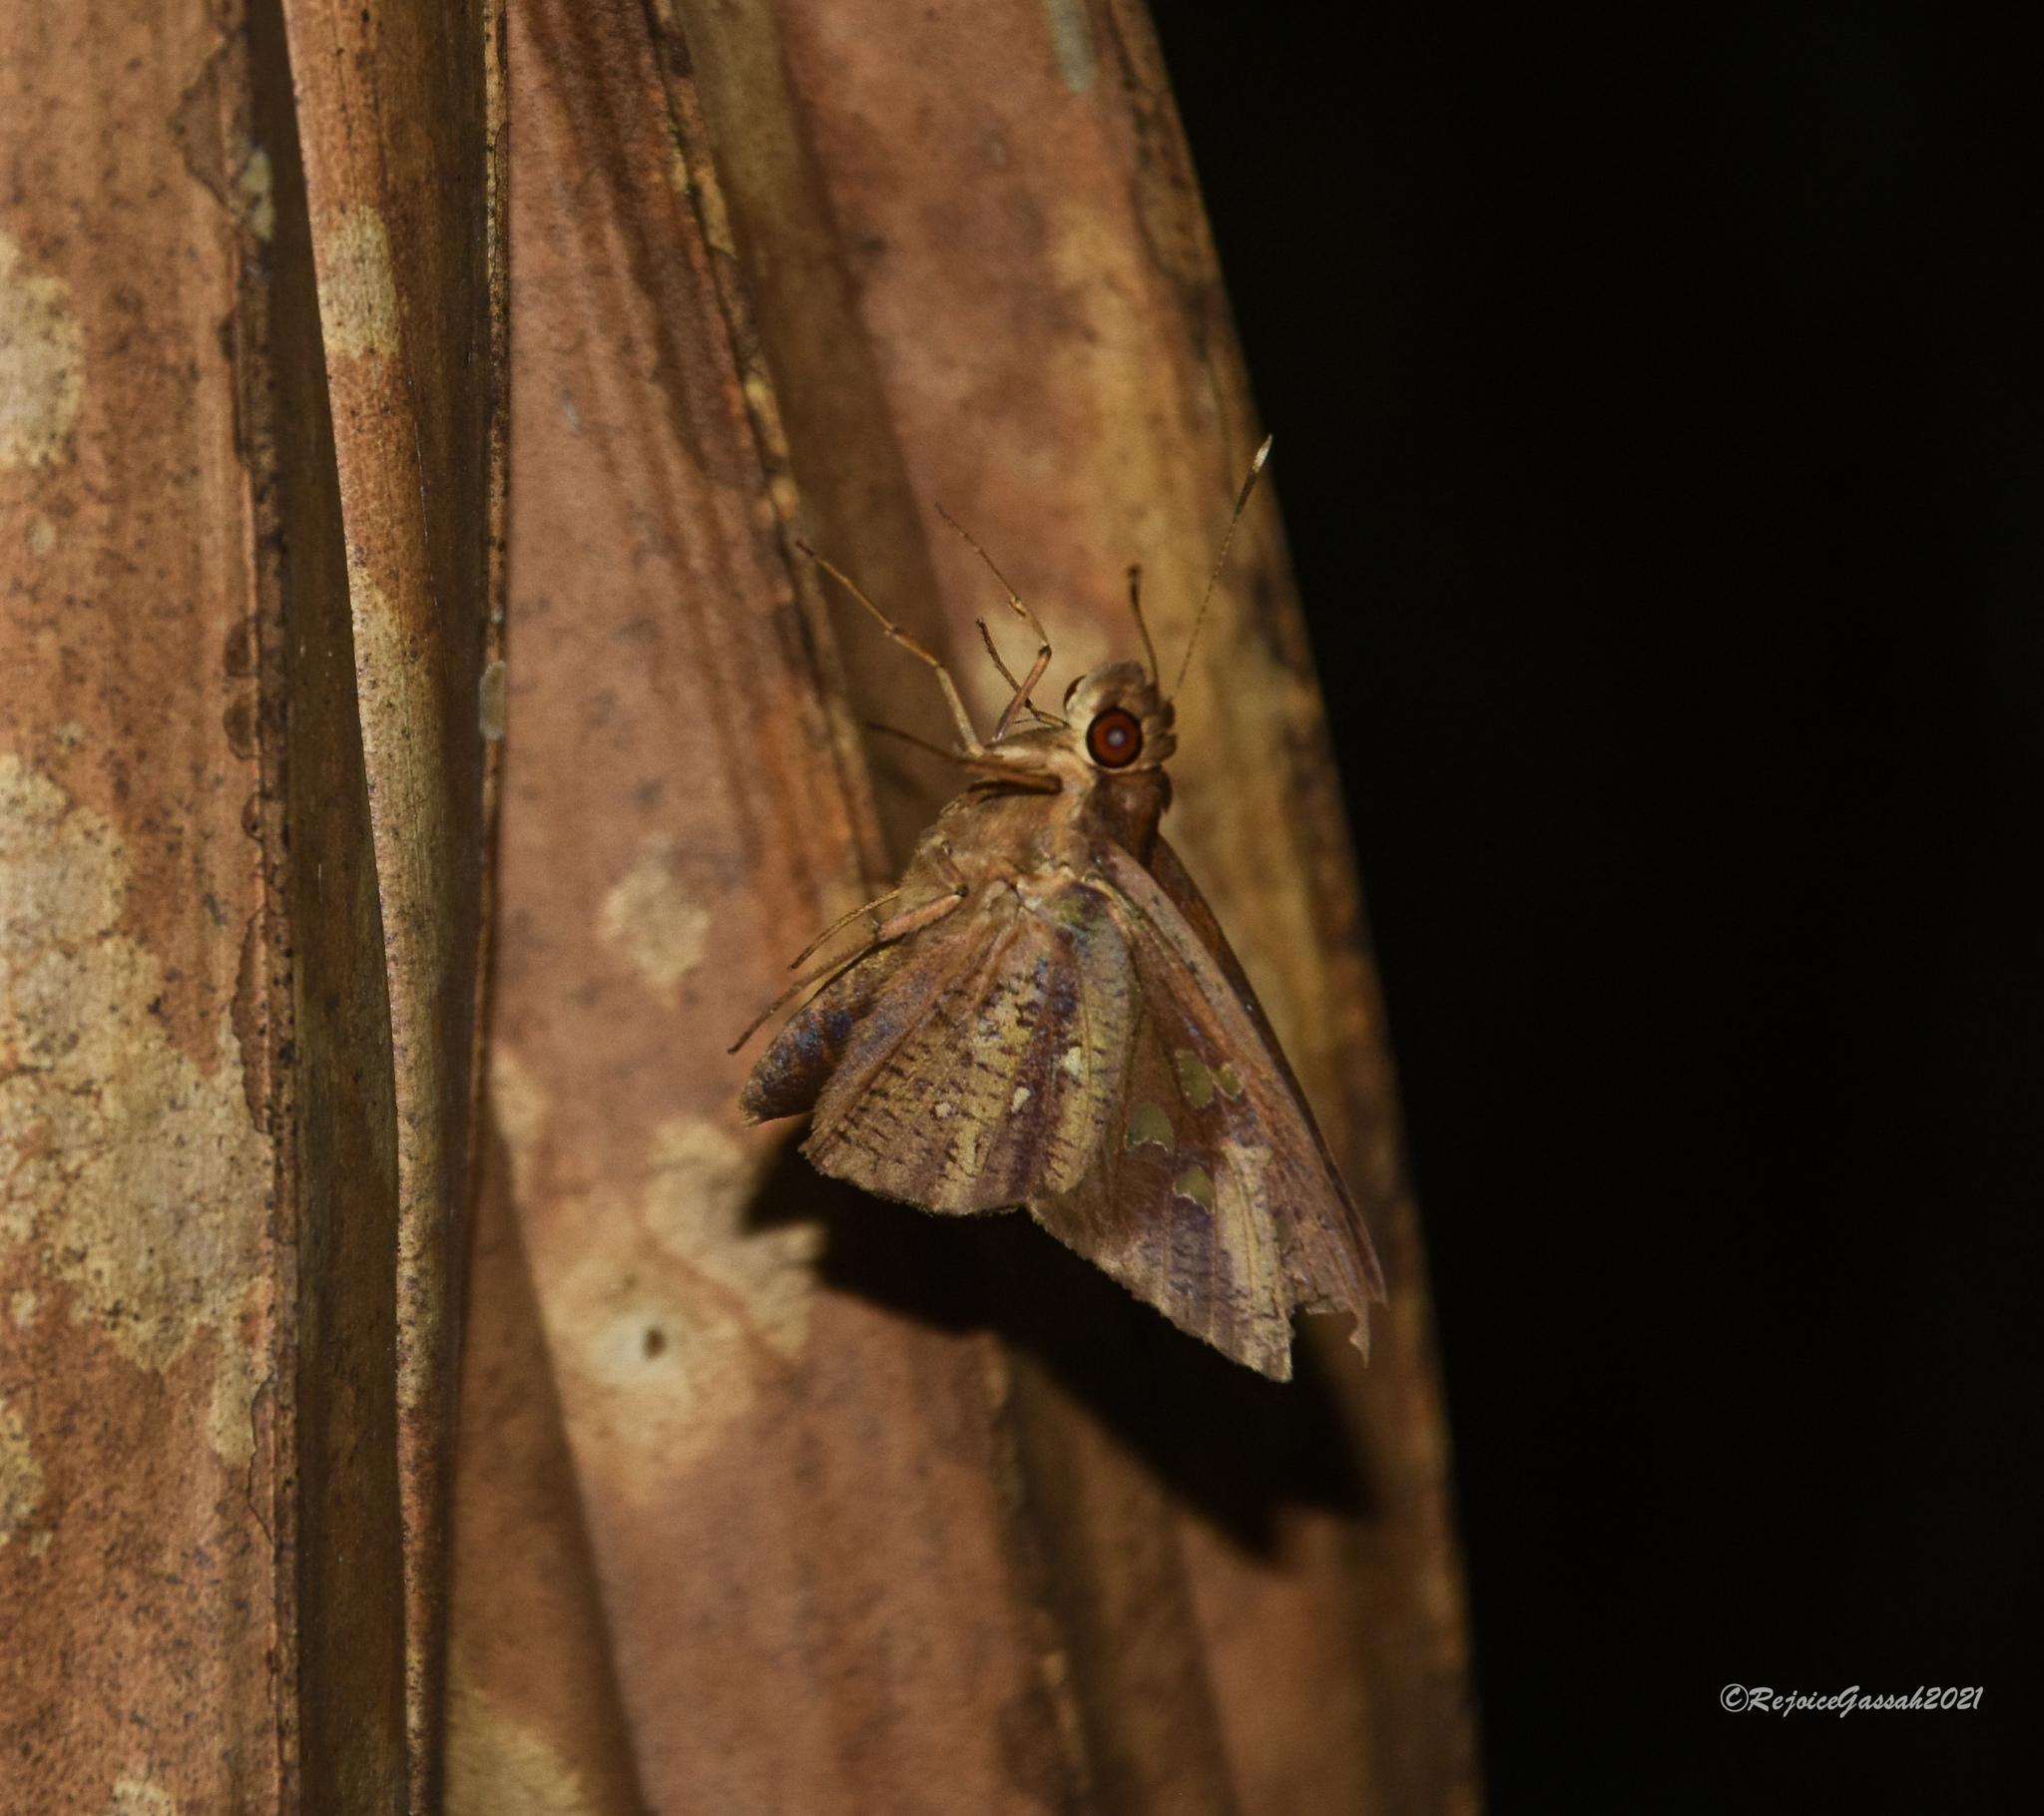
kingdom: Animalia
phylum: Arthropoda
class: Insecta
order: Lepidoptera
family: Hesperiidae
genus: Hidari
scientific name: Hidari bhawani
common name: Veined palmer
